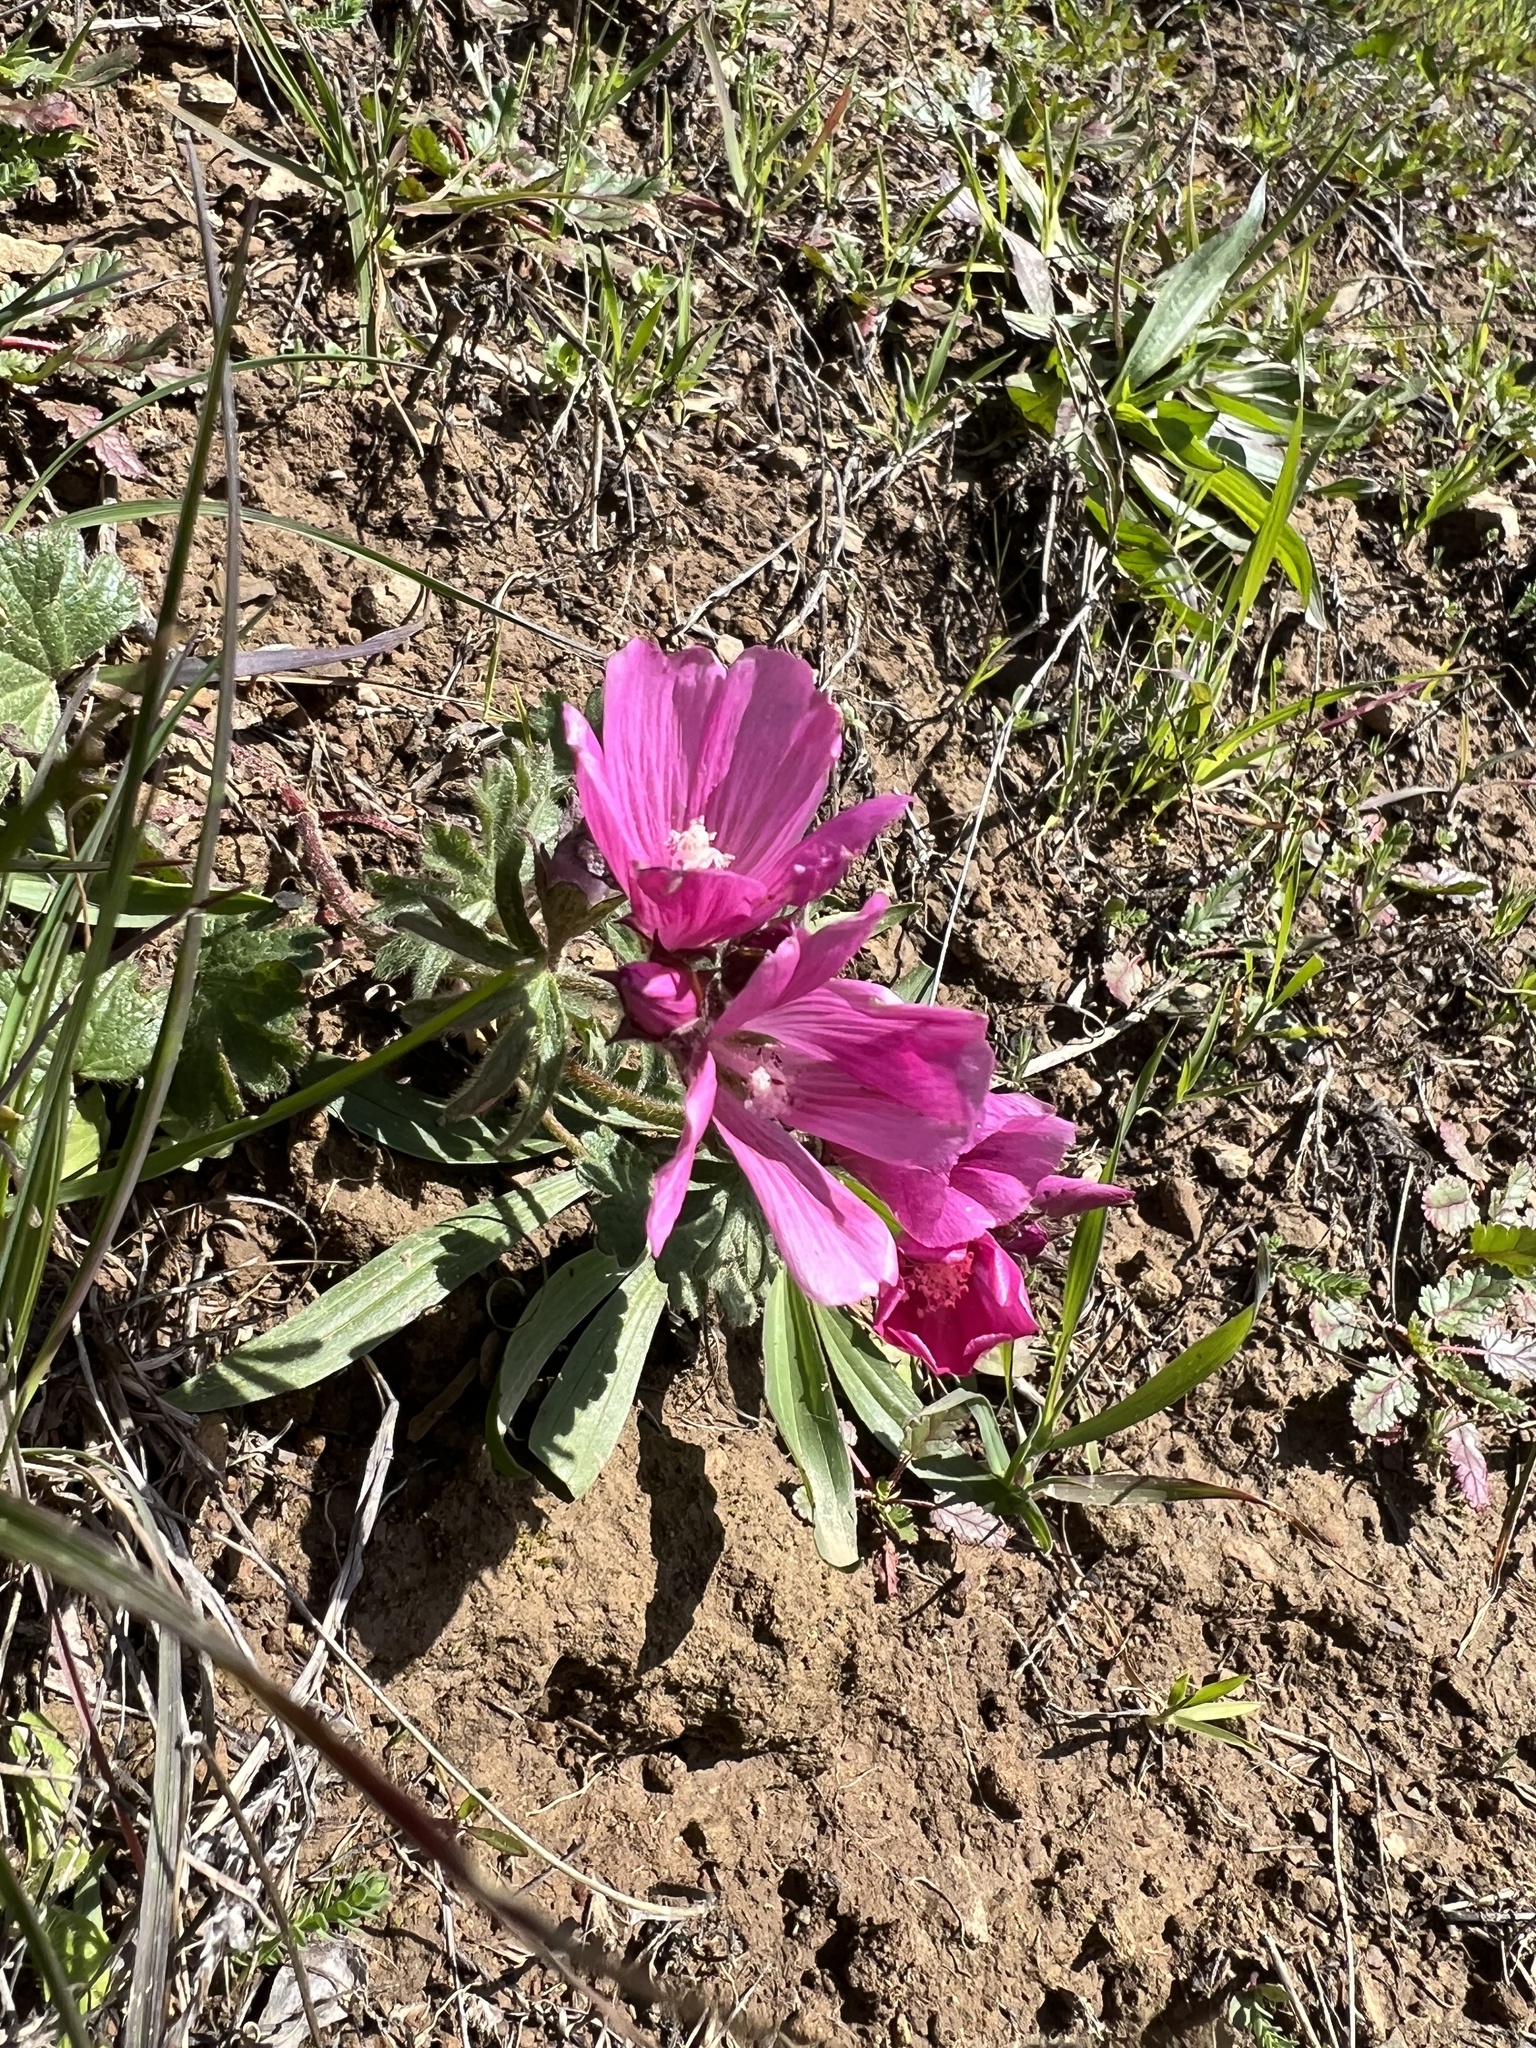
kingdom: Plantae
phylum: Tracheophyta
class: Magnoliopsida
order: Malvales
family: Malvaceae
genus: Sidalcea
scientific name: Sidalcea malviflora
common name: Greek mallow
